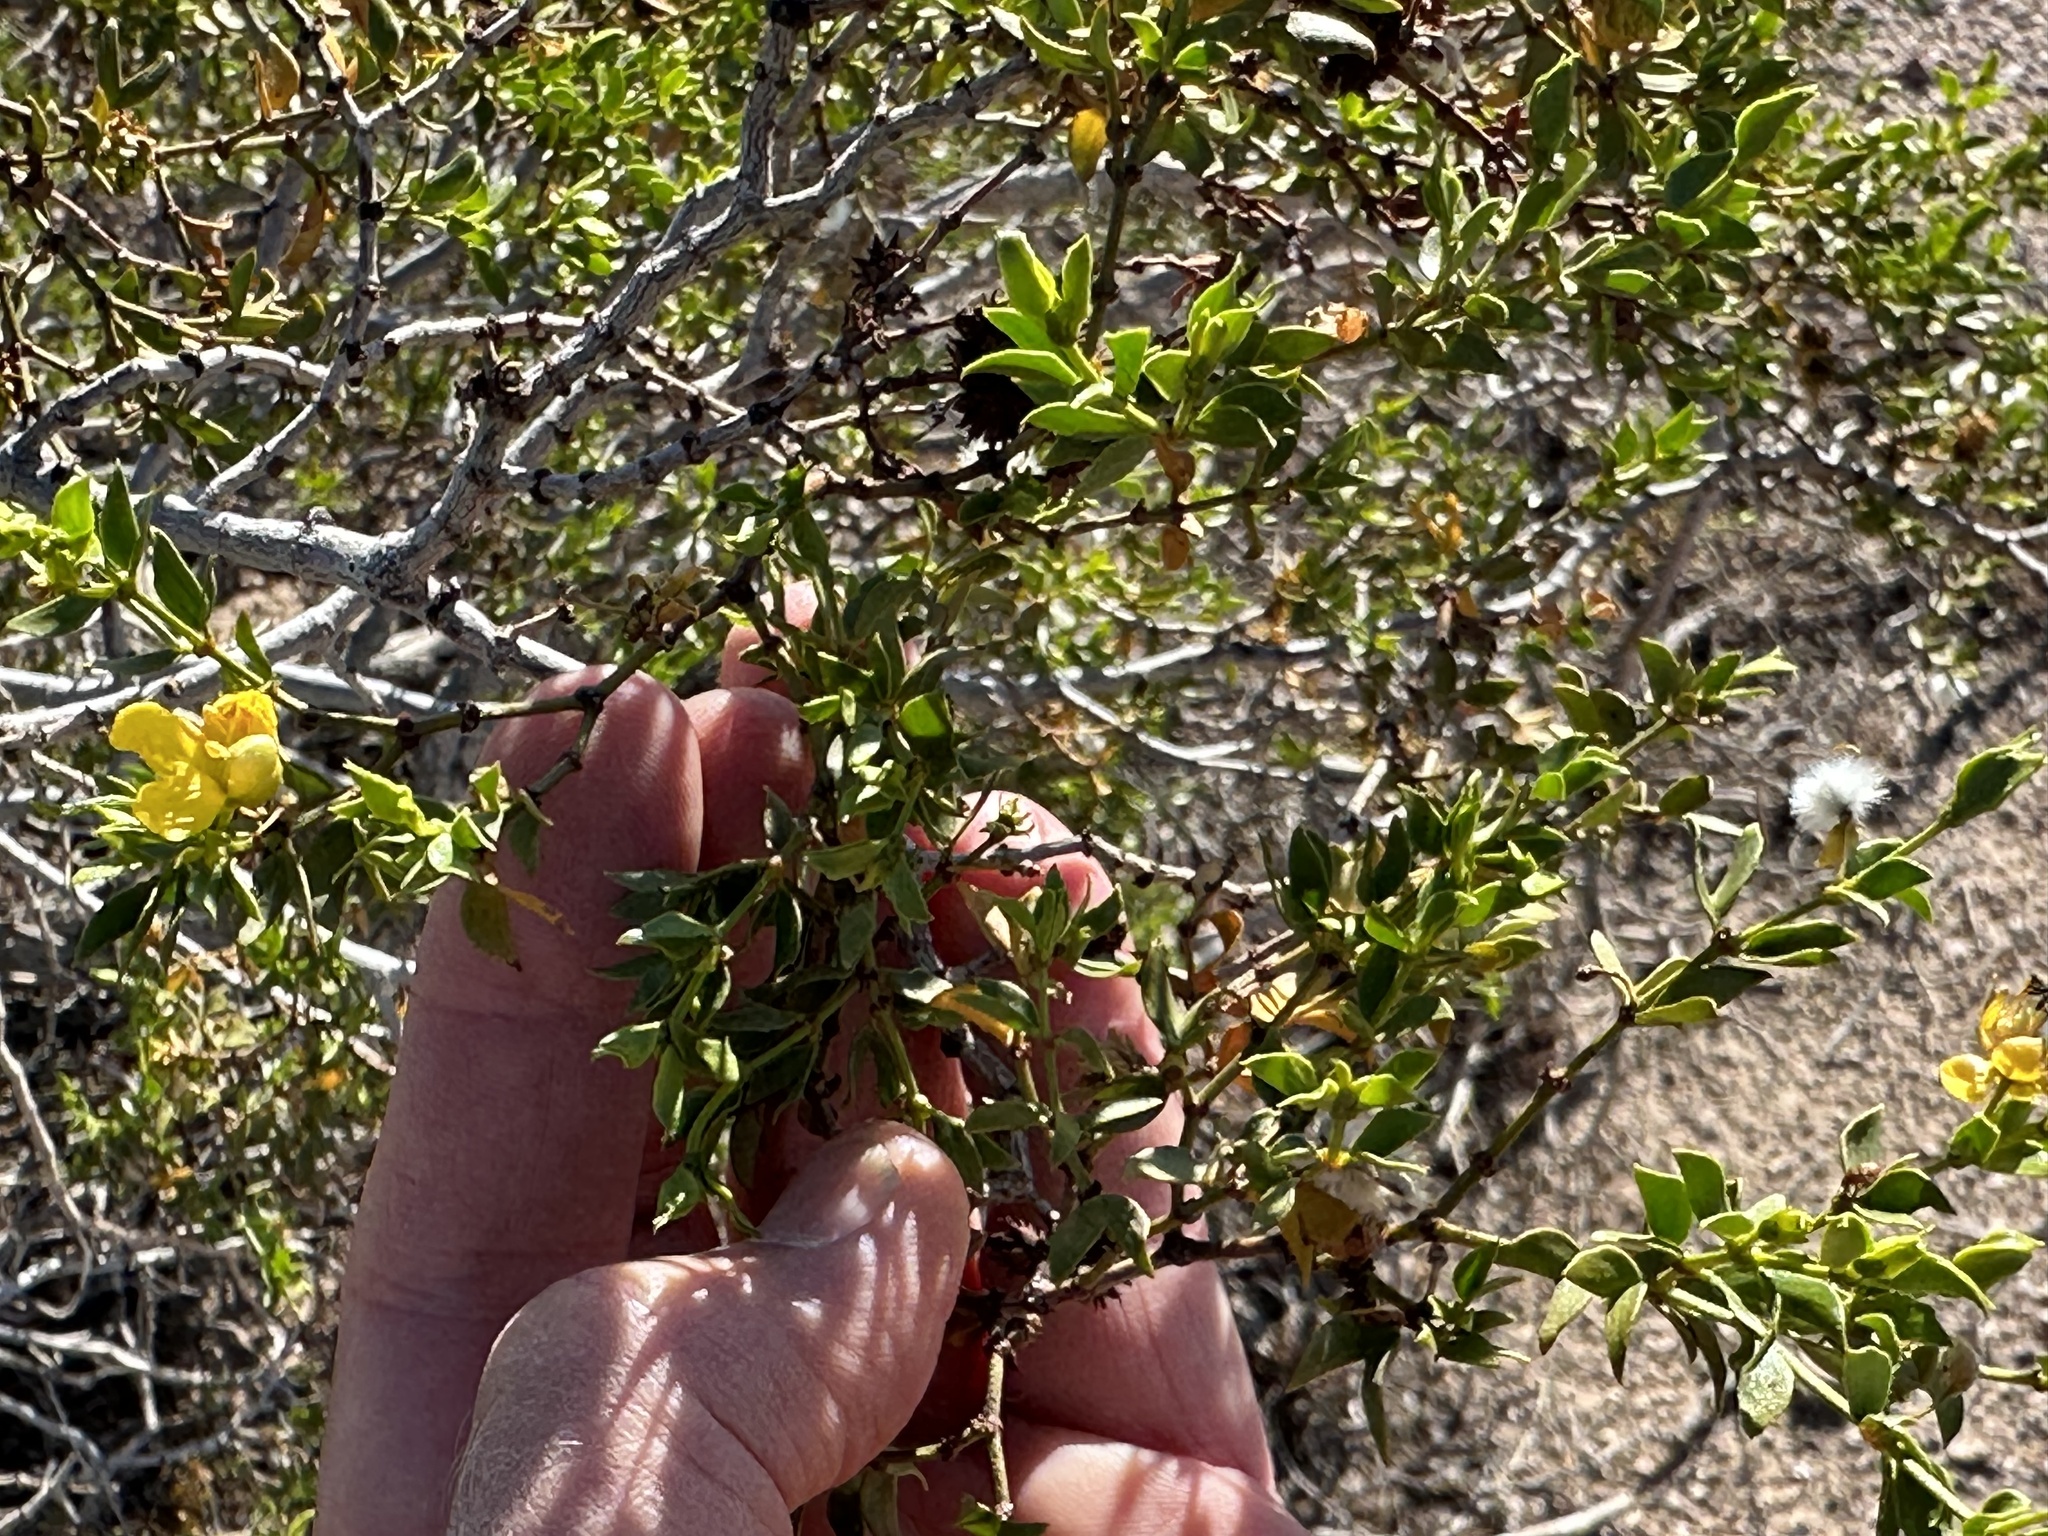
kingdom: Plantae
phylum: Tracheophyta
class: Magnoliopsida
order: Zygophyllales
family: Zygophyllaceae
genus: Larrea
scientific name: Larrea tridentata
